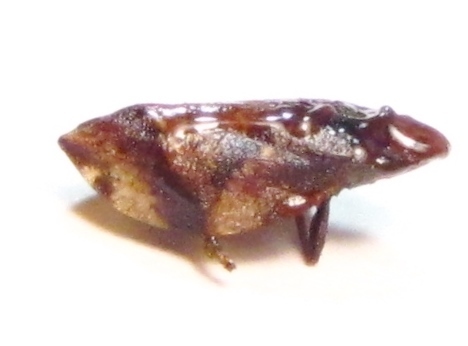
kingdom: Animalia
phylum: Arthropoda
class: Insecta
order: Hemiptera
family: Aphrophoridae
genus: Lepyronia
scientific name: Lepyronia quadrangularis
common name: Diamond-backed spittlebug
